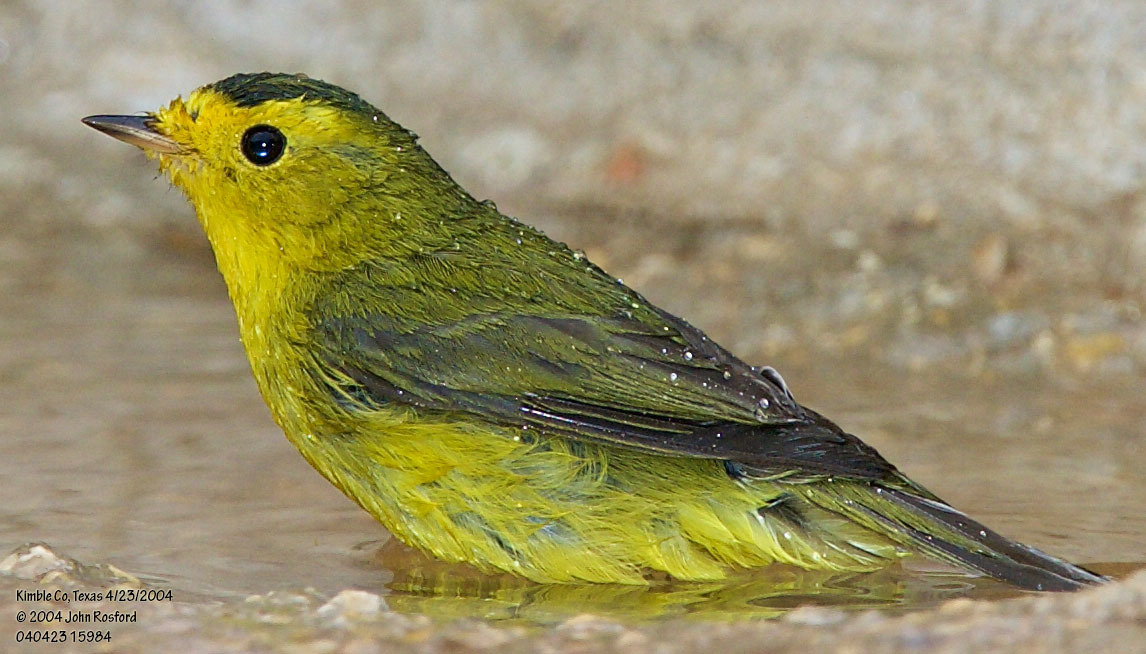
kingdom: Animalia
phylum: Chordata
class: Aves
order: Passeriformes
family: Parulidae
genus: Cardellina
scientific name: Cardellina pusilla
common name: Wilson's warbler
